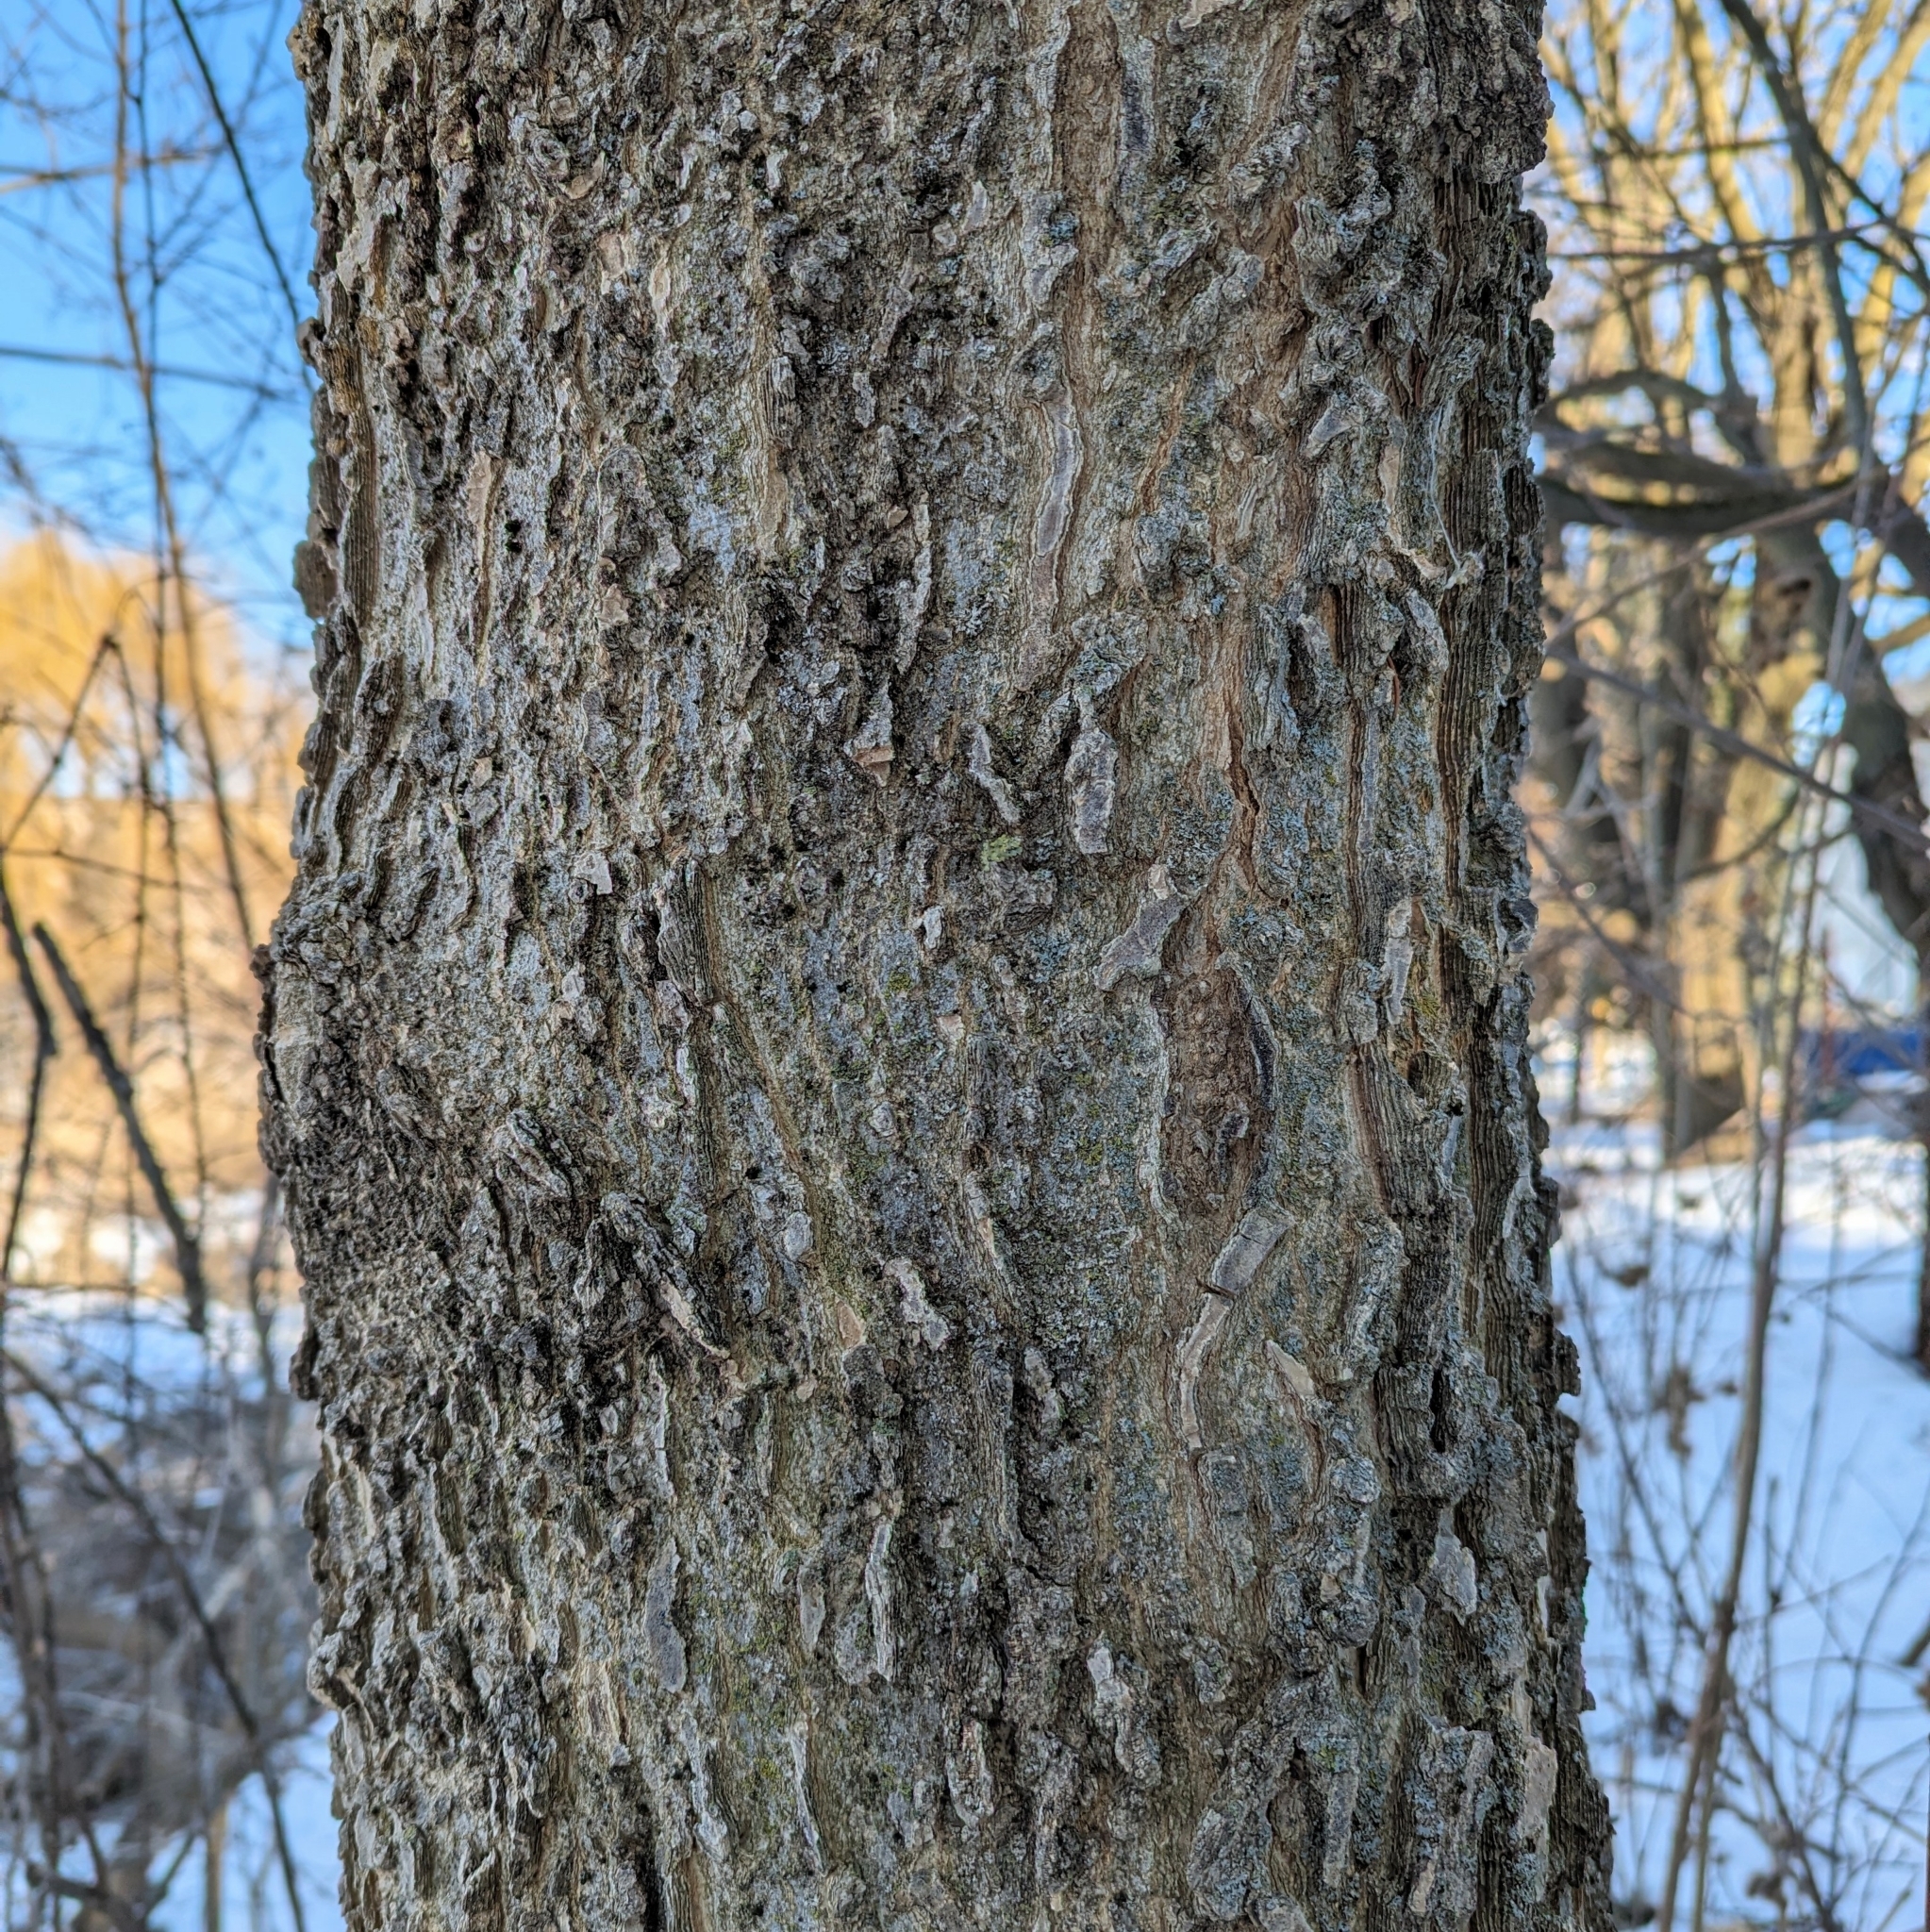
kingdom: Plantae
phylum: Tracheophyta
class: Magnoliopsida
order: Rosales
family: Cannabaceae
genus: Celtis
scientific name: Celtis occidentalis
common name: Common hackberry
